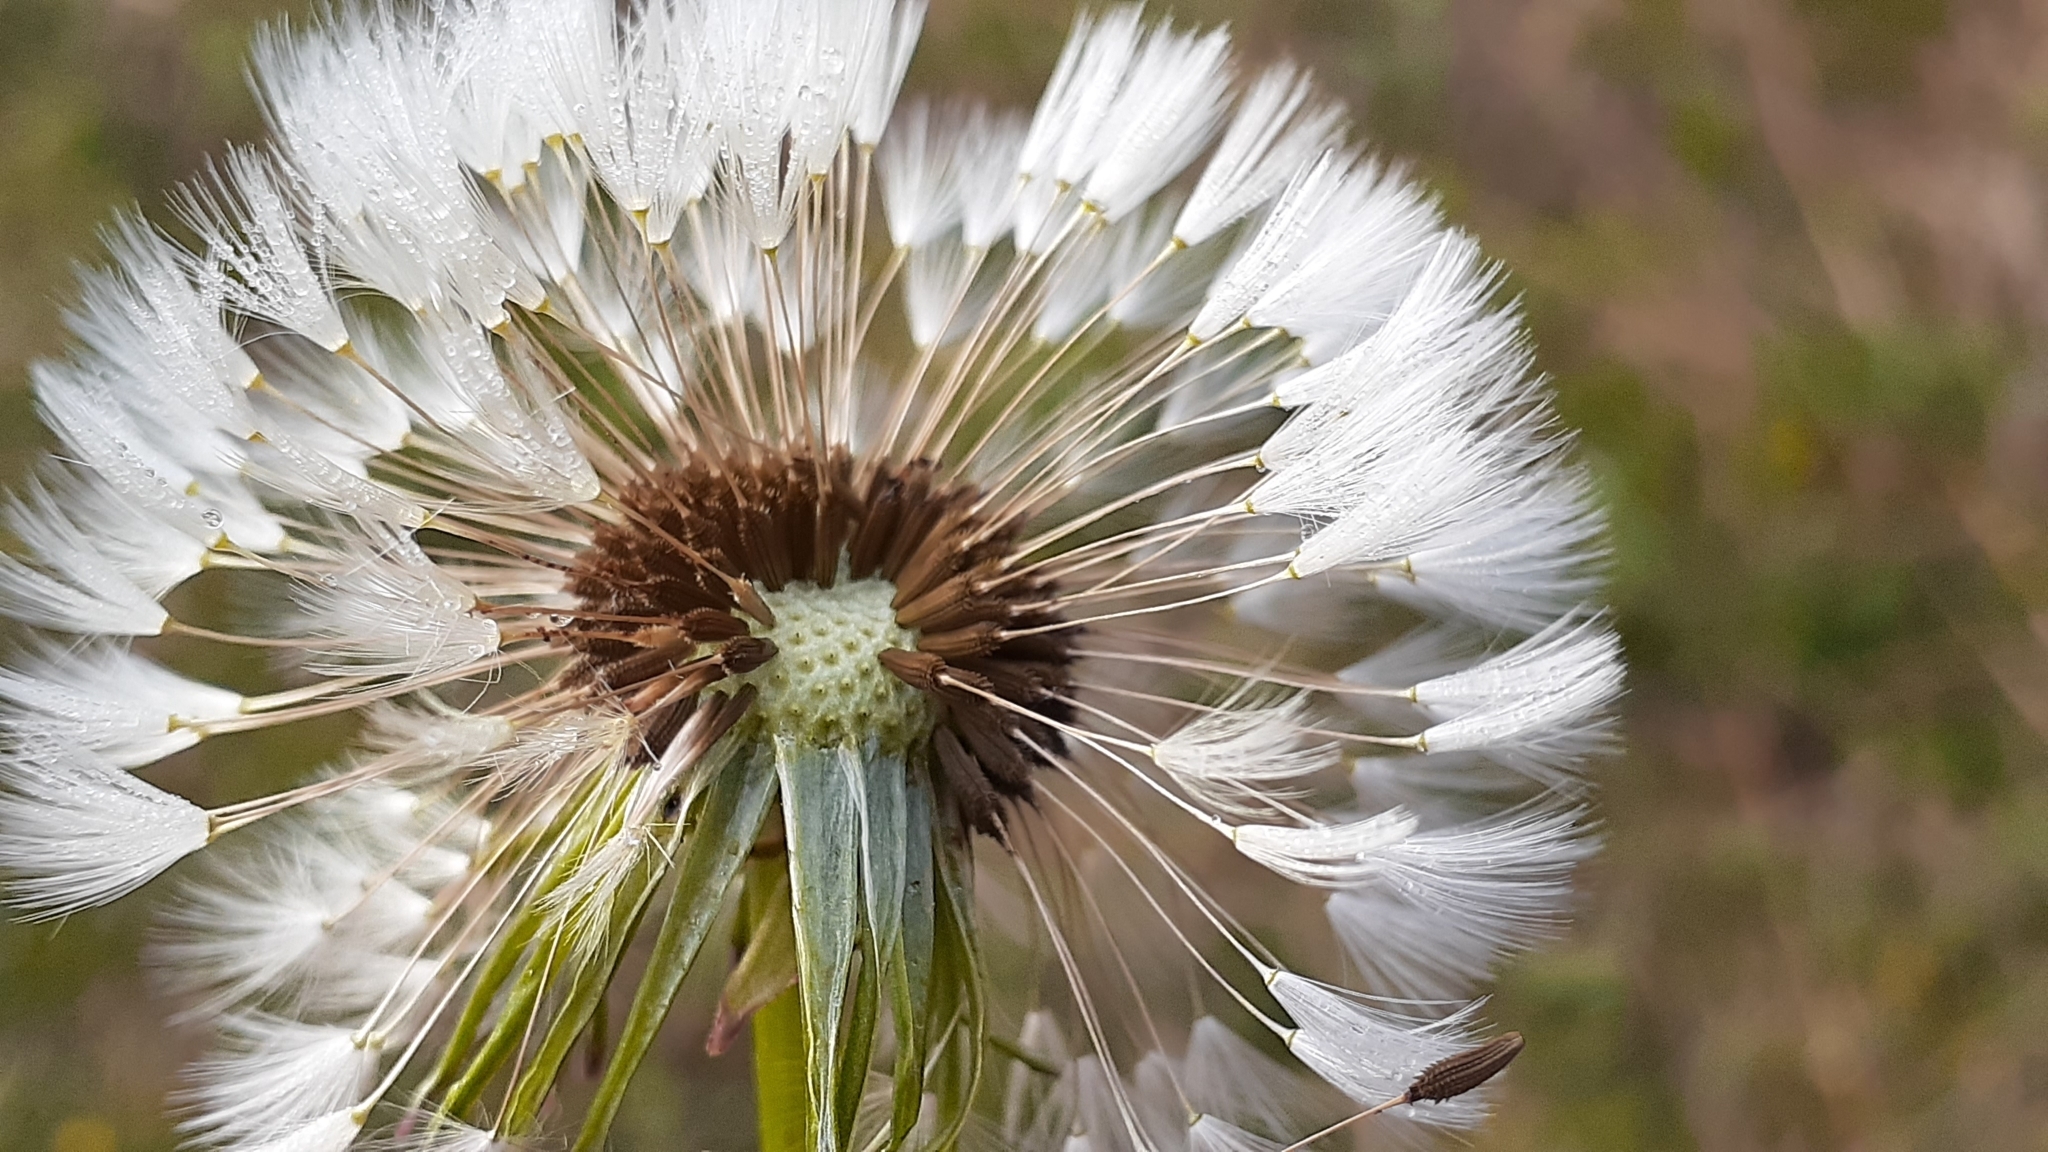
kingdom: Plantae
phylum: Tracheophyta
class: Magnoliopsida
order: Asterales
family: Asteraceae
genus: Taraxacum
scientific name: Taraxacum officinale
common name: Common dandelion
